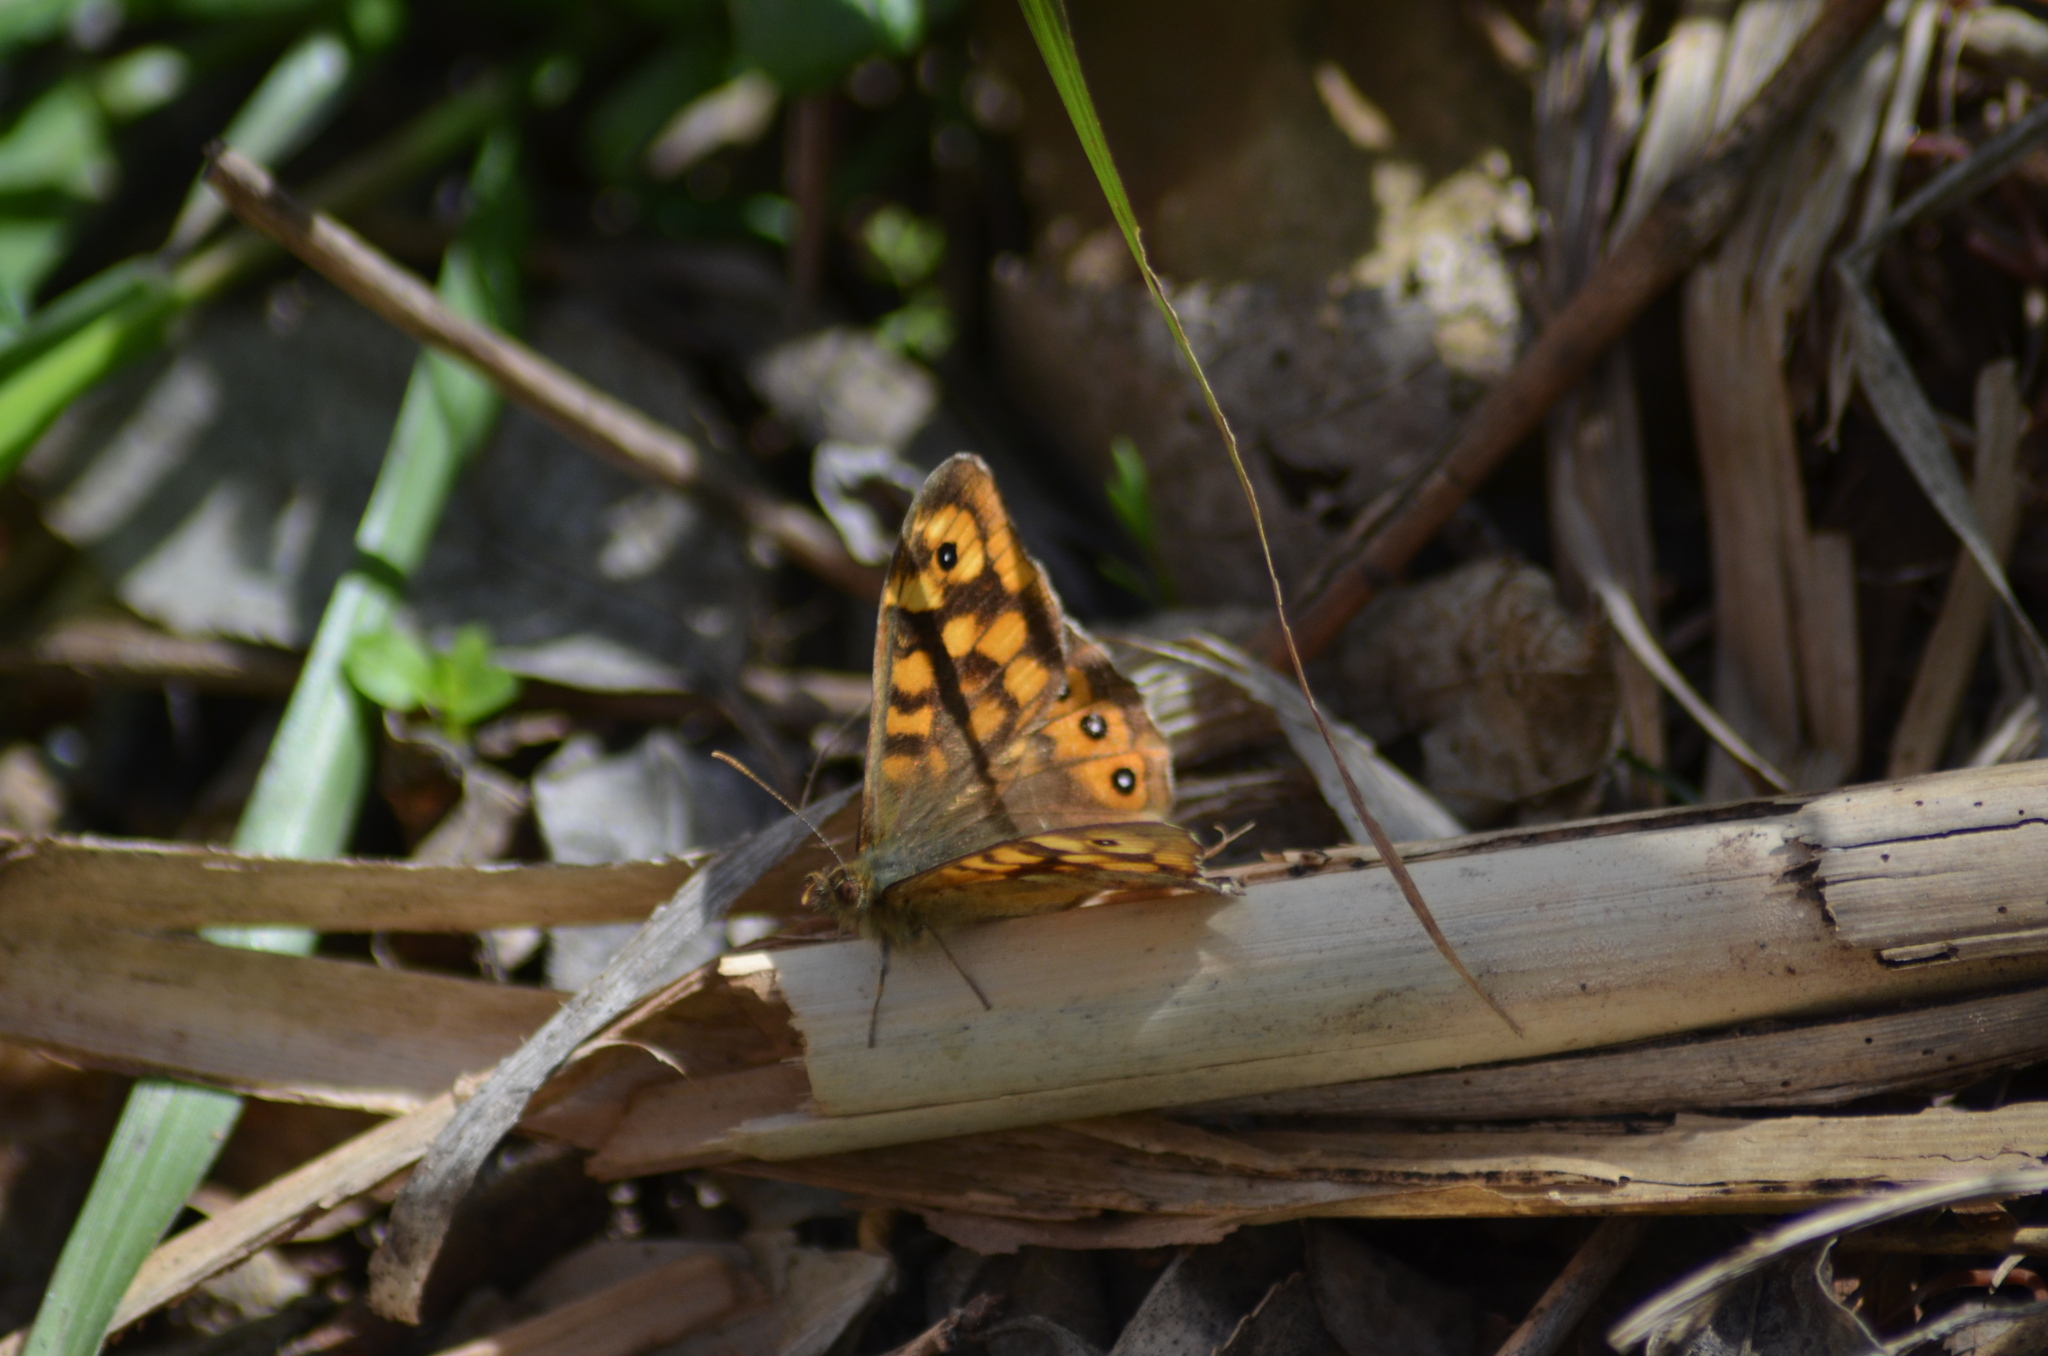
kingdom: Animalia
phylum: Arthropoda
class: Insecta
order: Lepidoptera
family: Nymphalidae
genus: Pararge
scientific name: Pararge aegeria
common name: Speckled wood
